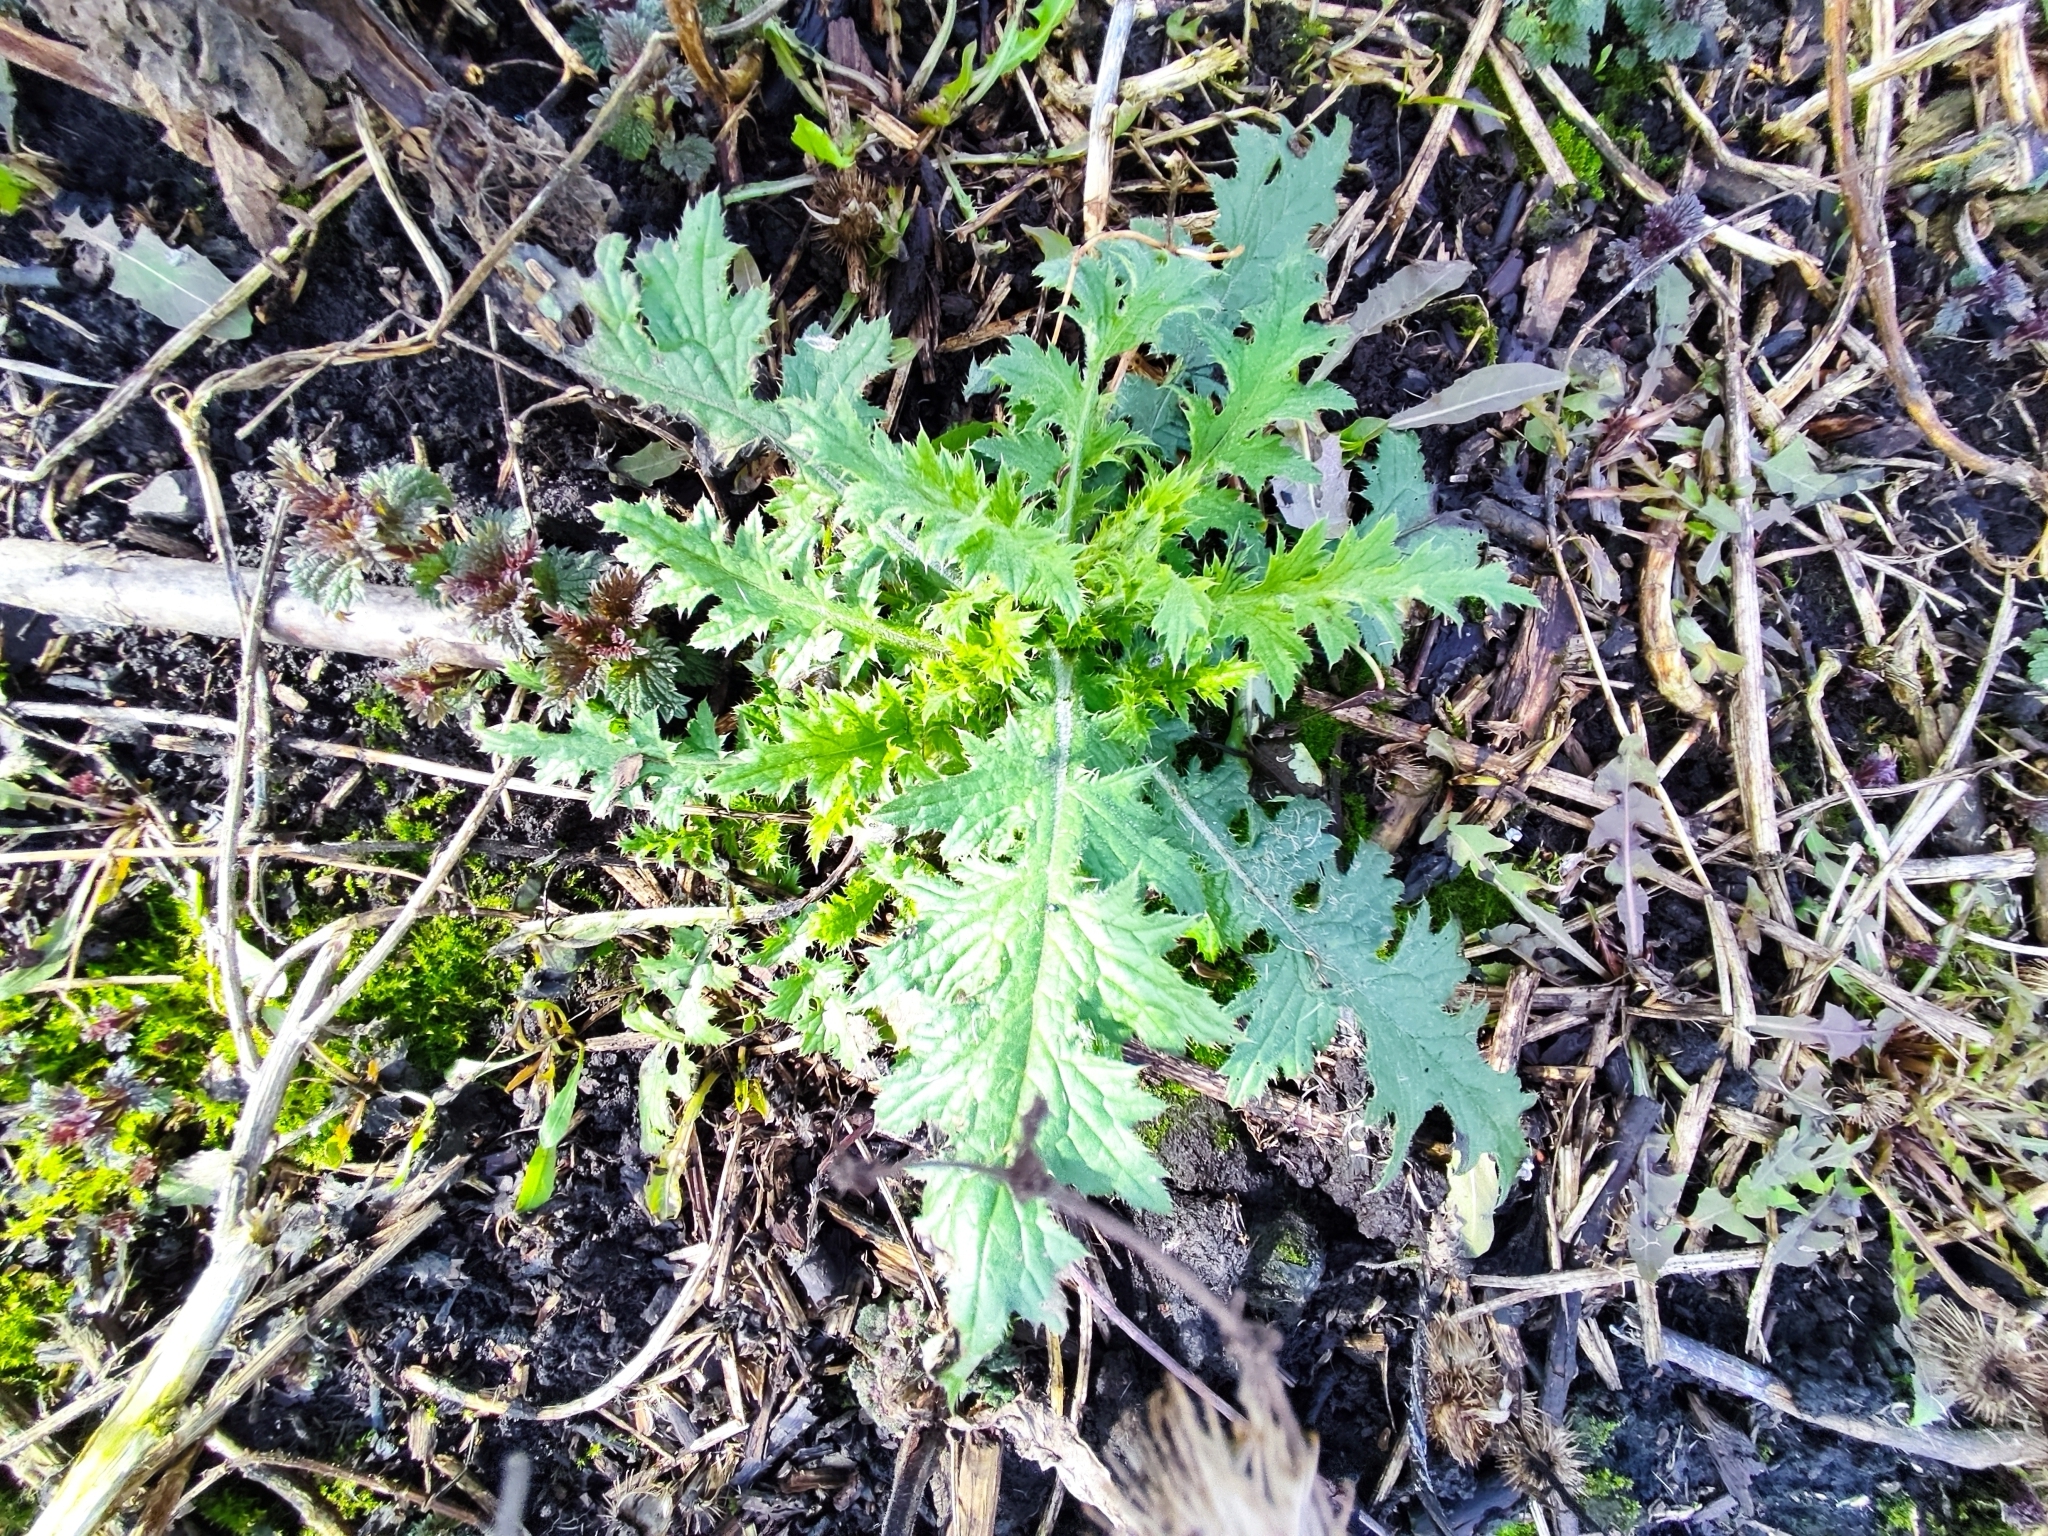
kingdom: Plantae
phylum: Tracheophyta
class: Magnoliopsida
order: Asterales
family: Asteraceae
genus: Carduus
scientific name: Carduus crispus
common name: Welted thistle
